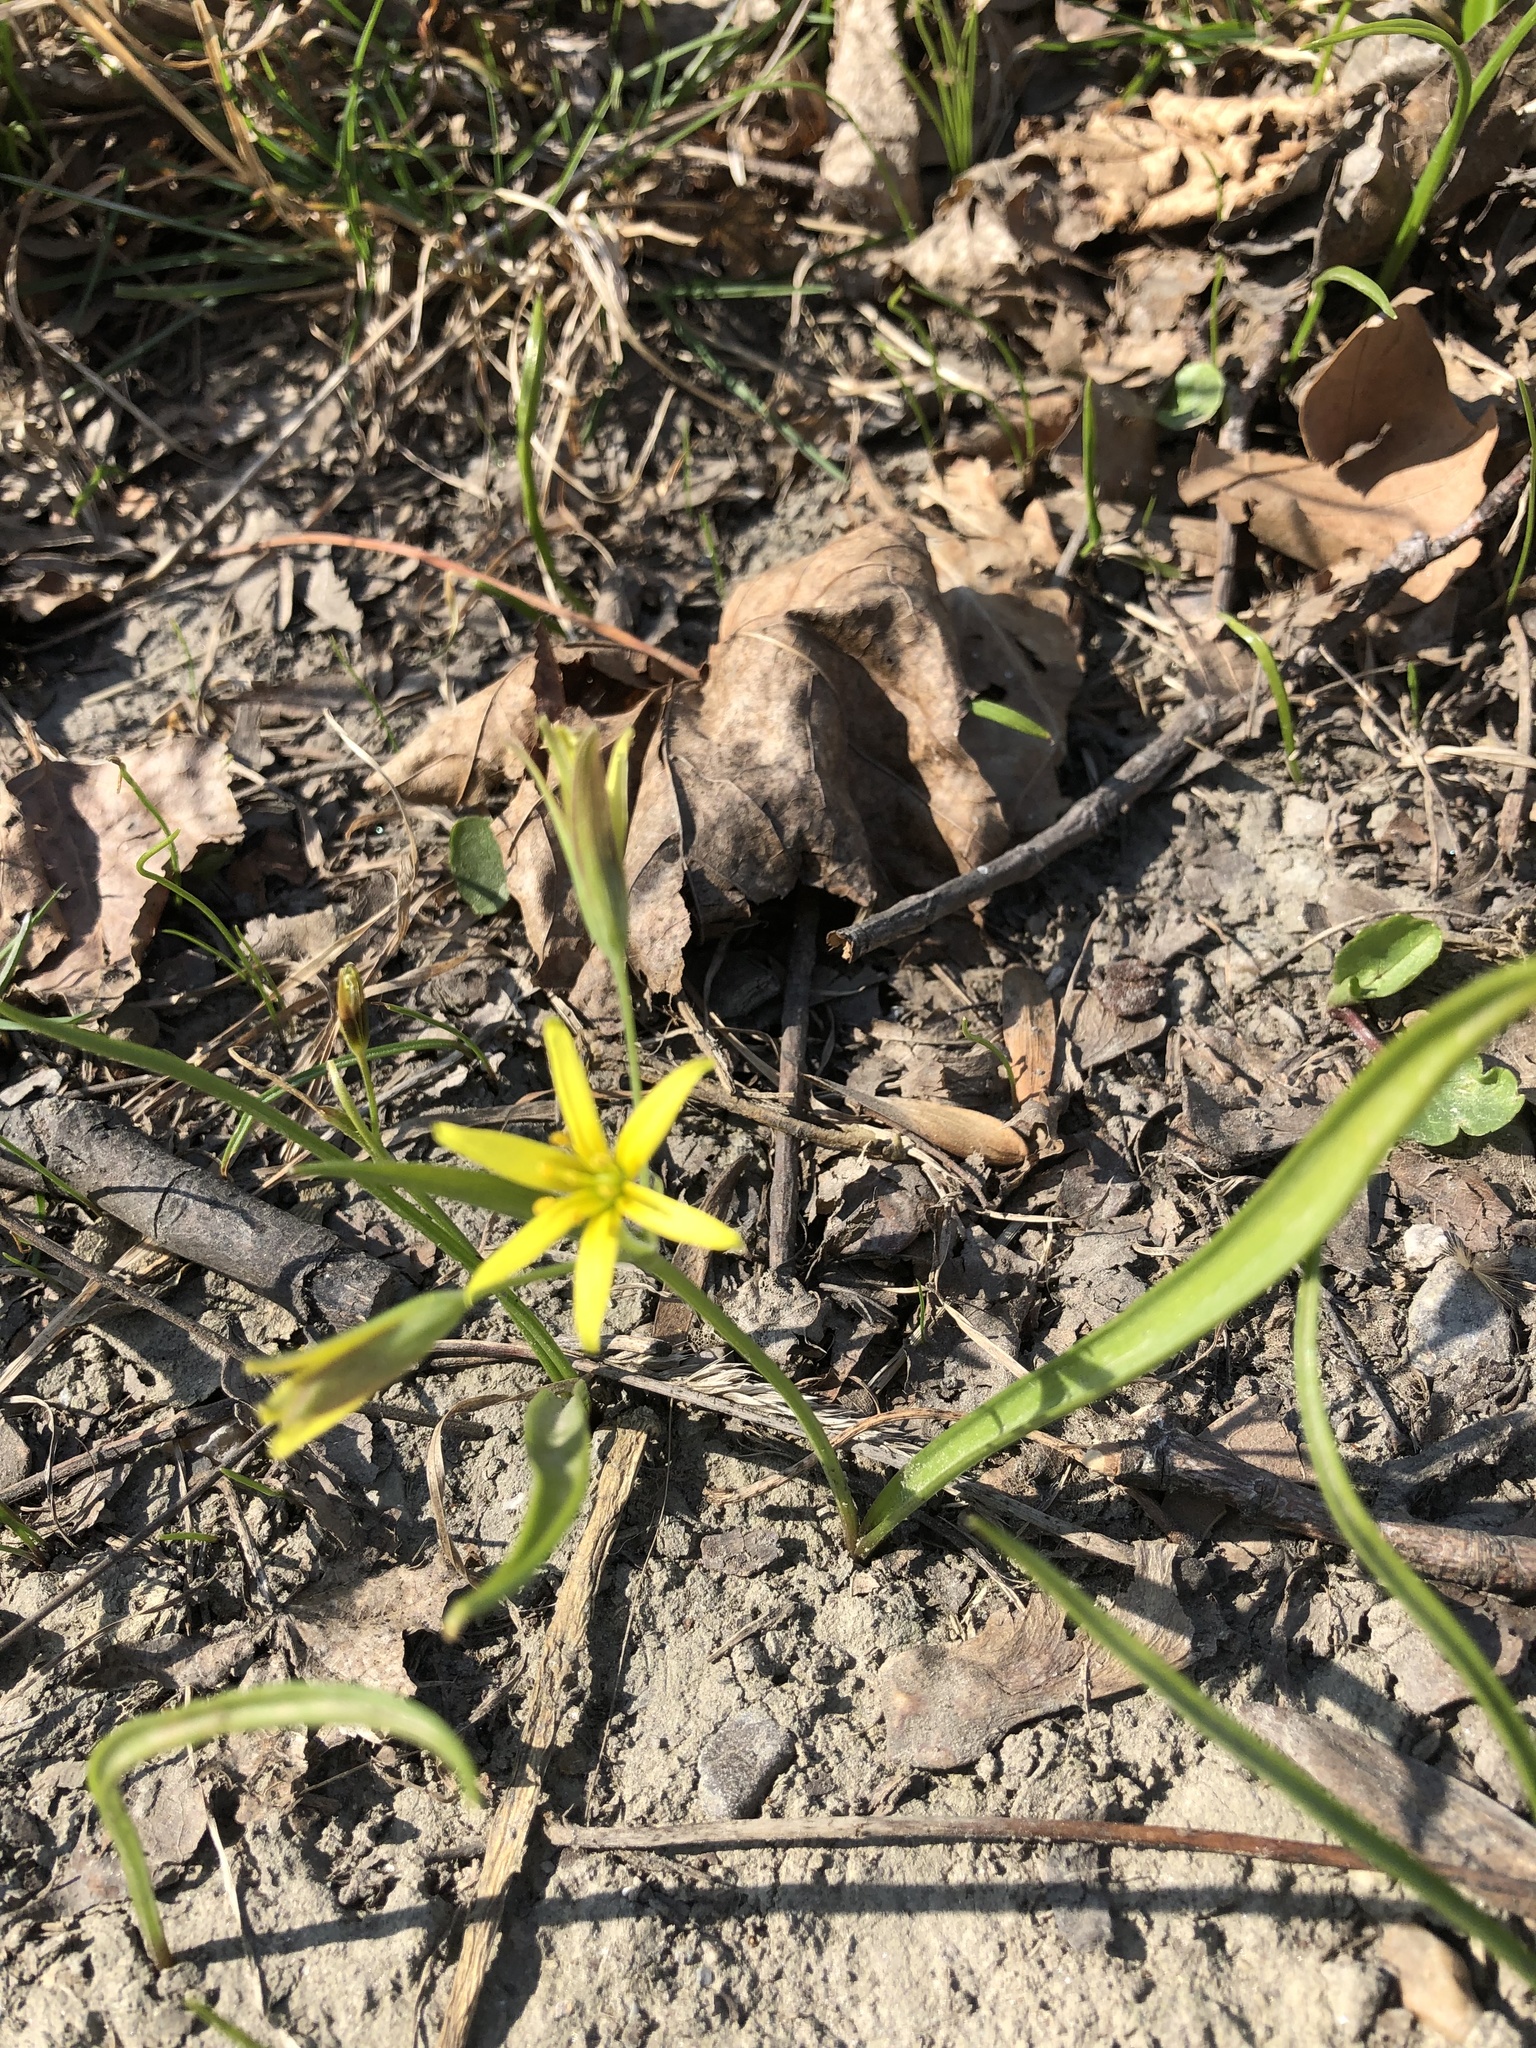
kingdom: Plantae
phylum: Tracheophyta
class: Liliopsida
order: Liliales
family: Liliaceae
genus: Gagea
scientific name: Gagea lutea
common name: Yellow star-of-bethlehem
